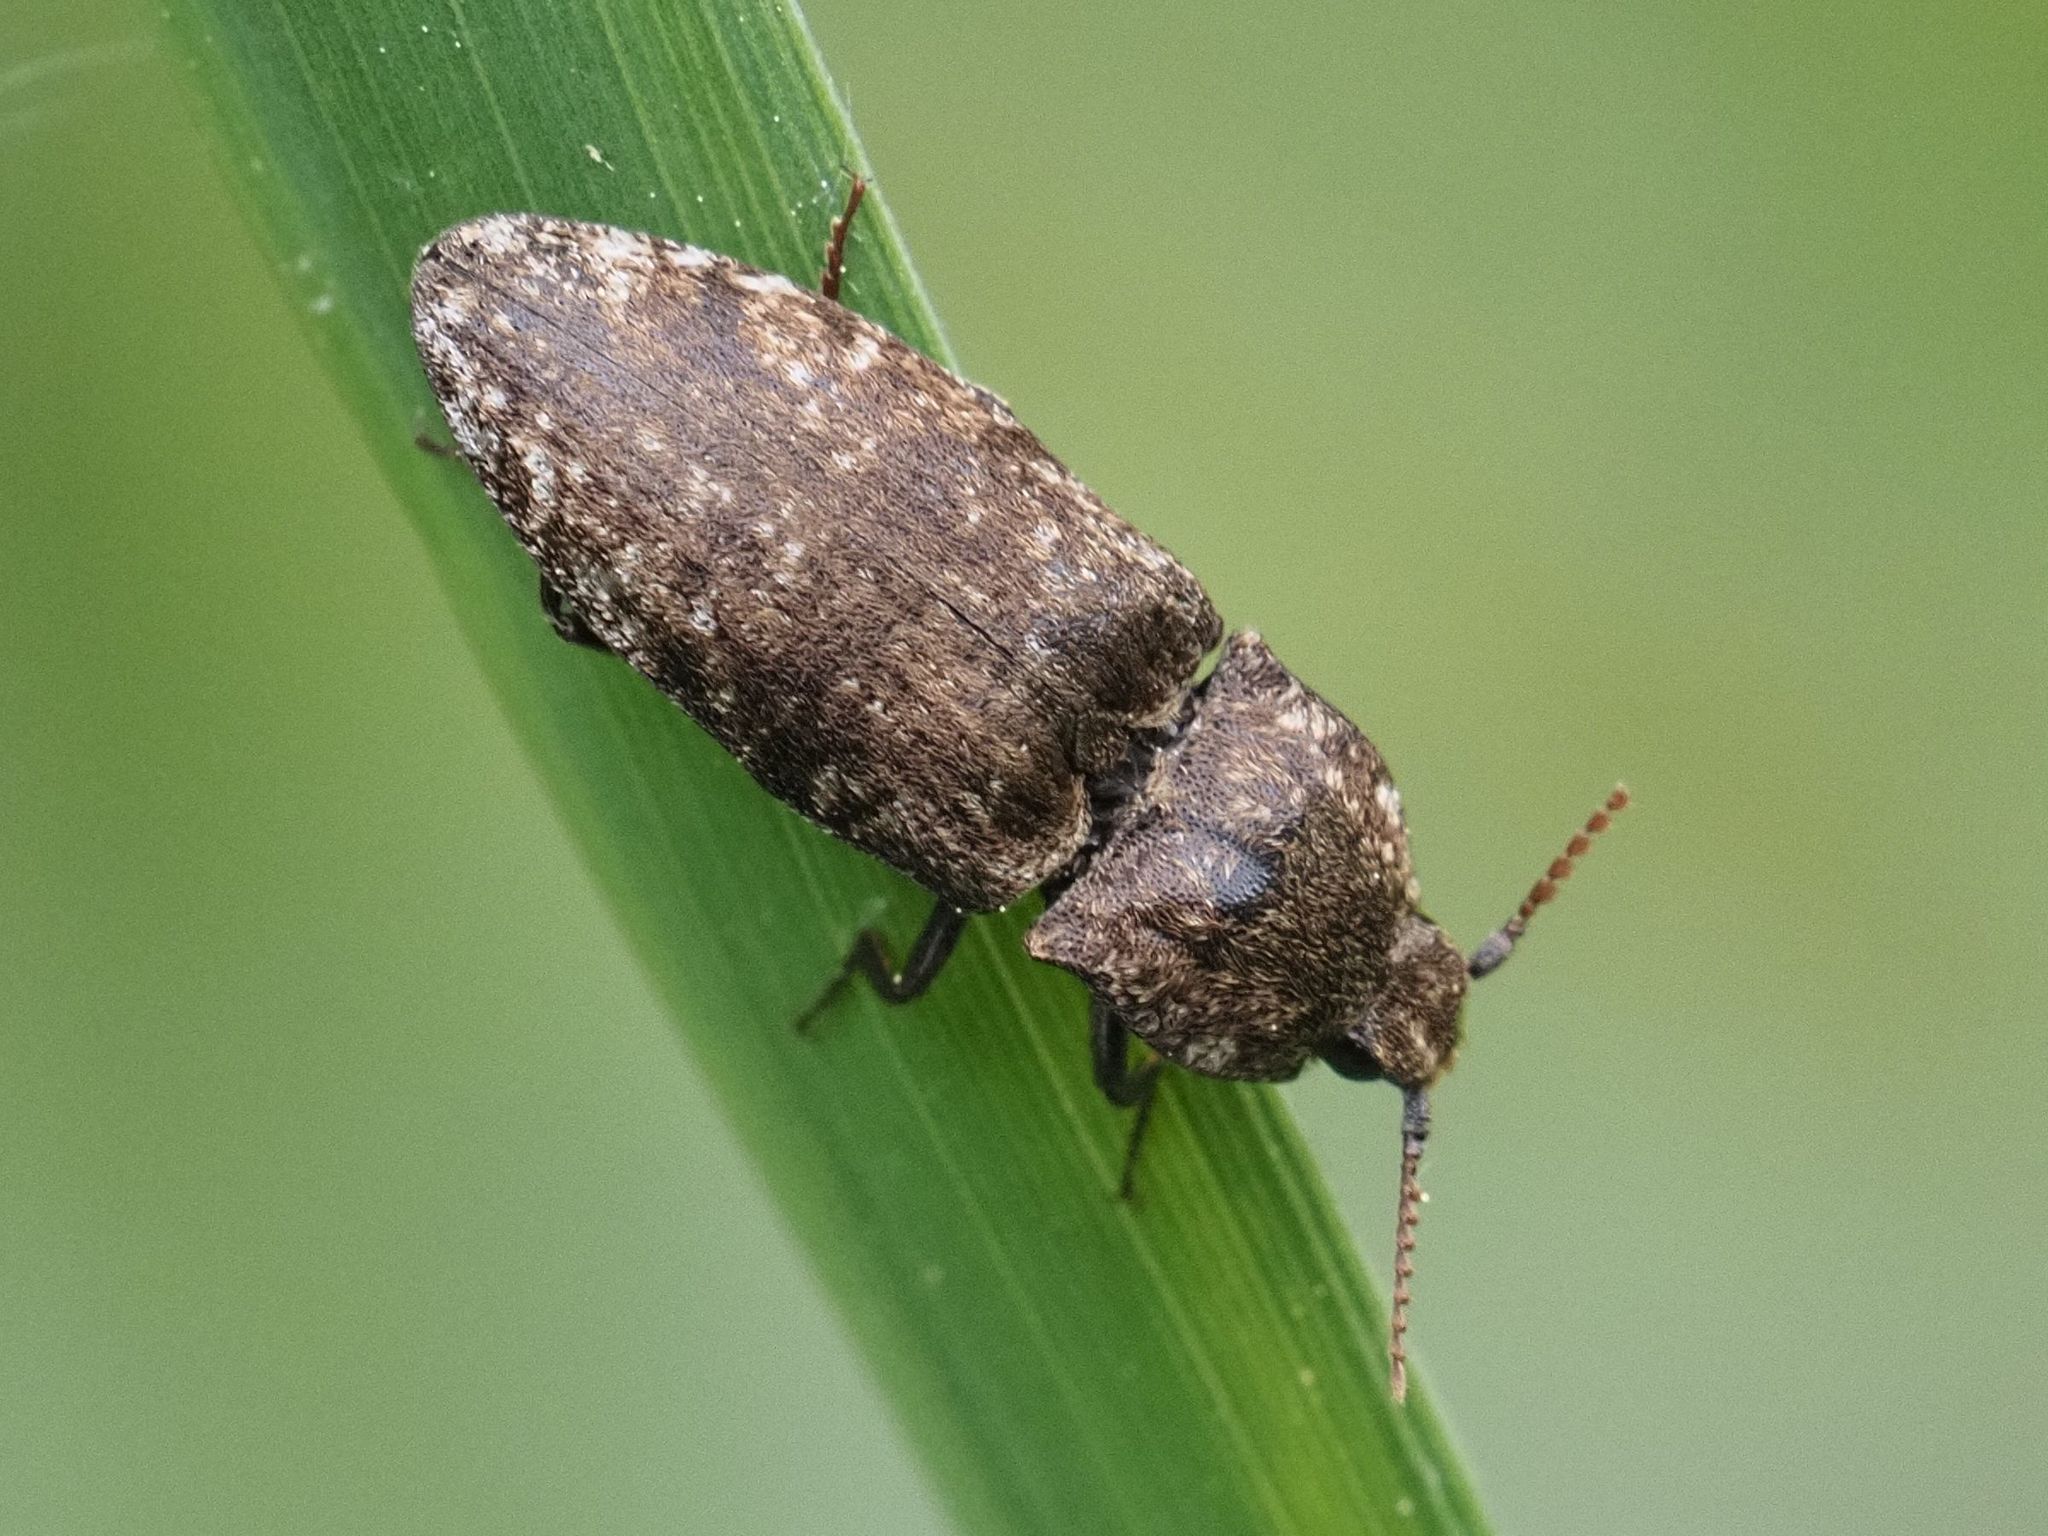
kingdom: Animalia
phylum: Arthropoda
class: Insecta
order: Coleoptera
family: Elateridae
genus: Agrypnus
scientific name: Agrypnus murinus
